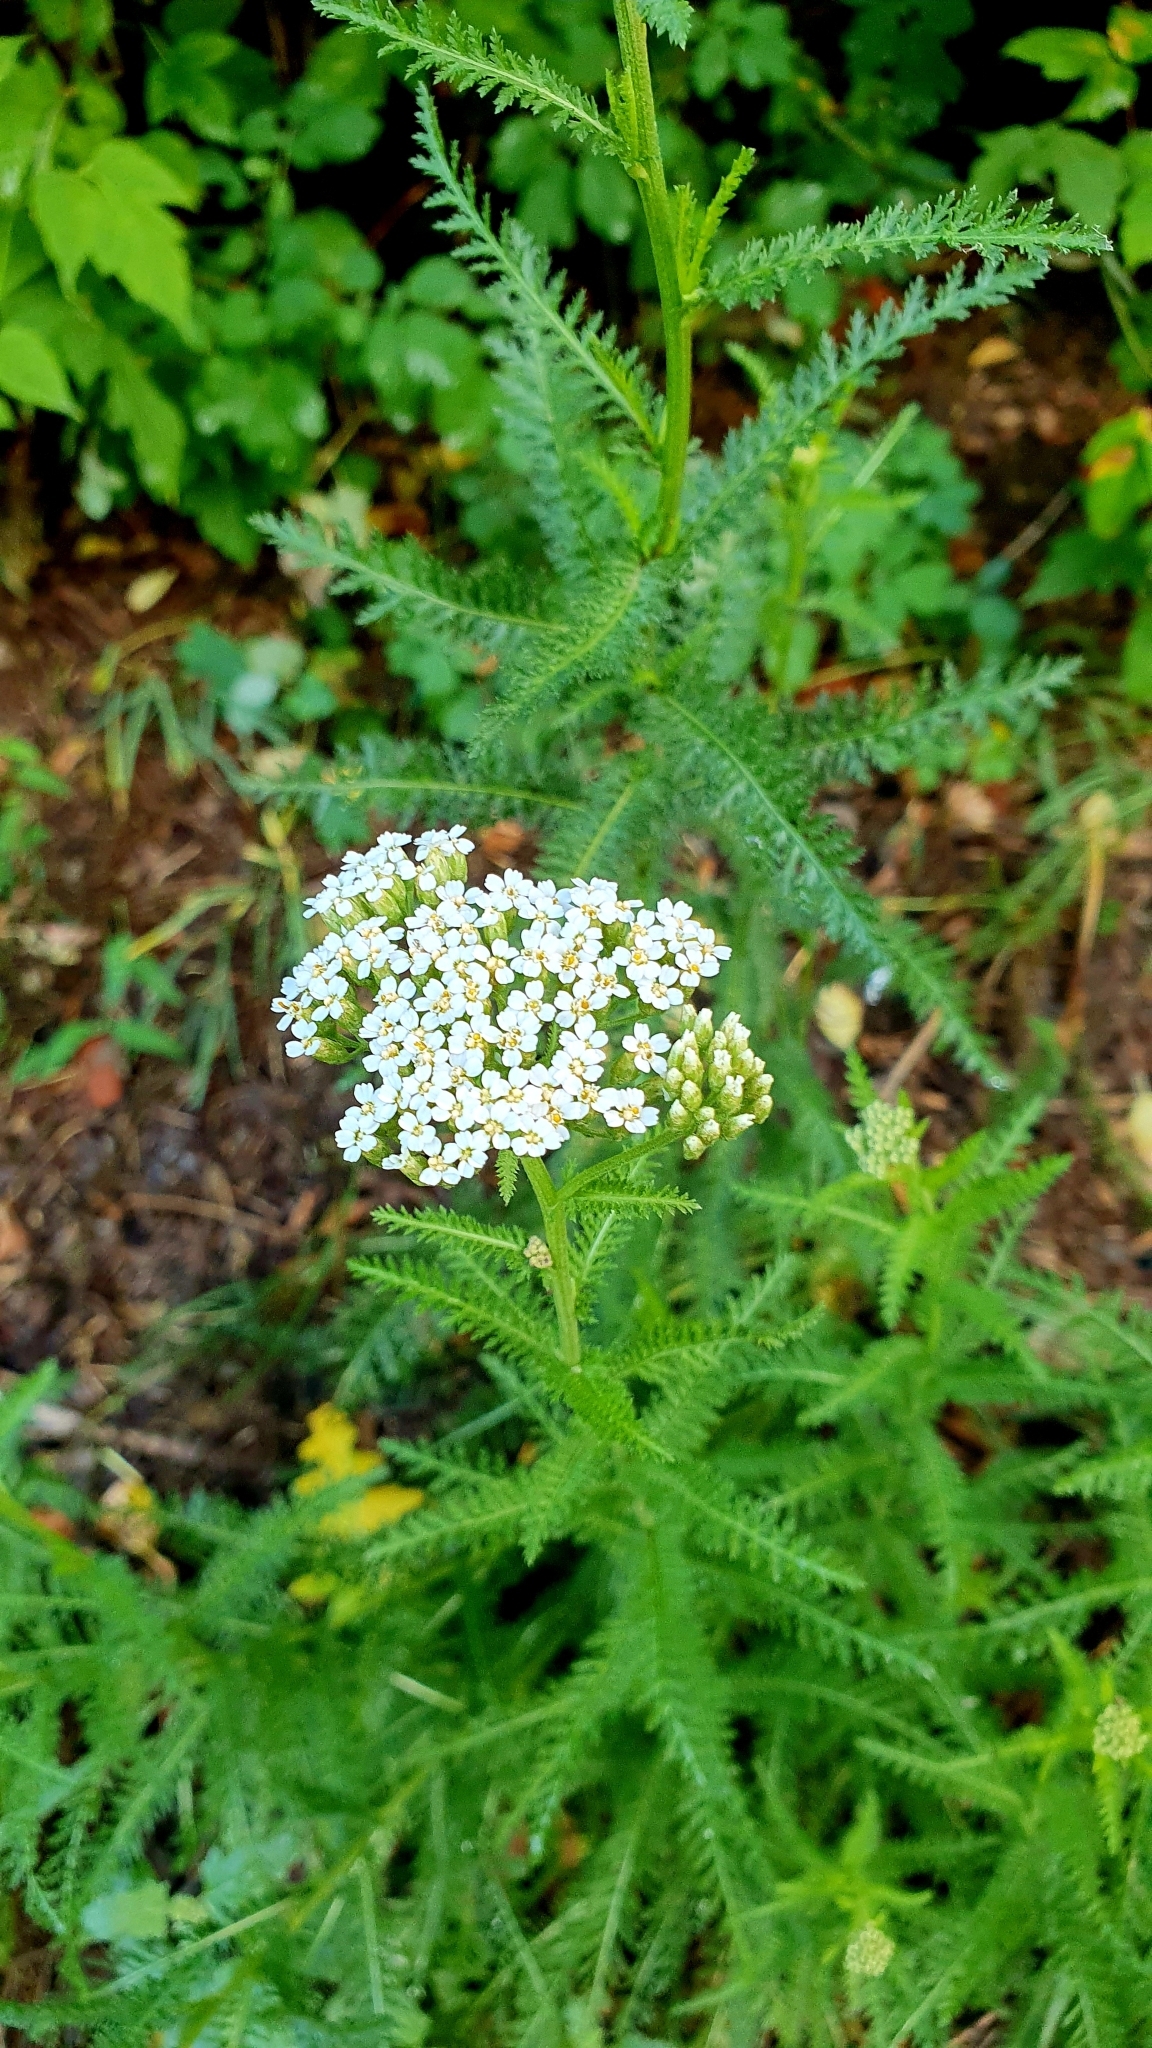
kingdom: Plantae
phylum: Tracheophyta
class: Magnoliopsida
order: Asterales
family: Asteraceae
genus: Achillea
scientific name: Achillea millefolium
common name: Yarrow
